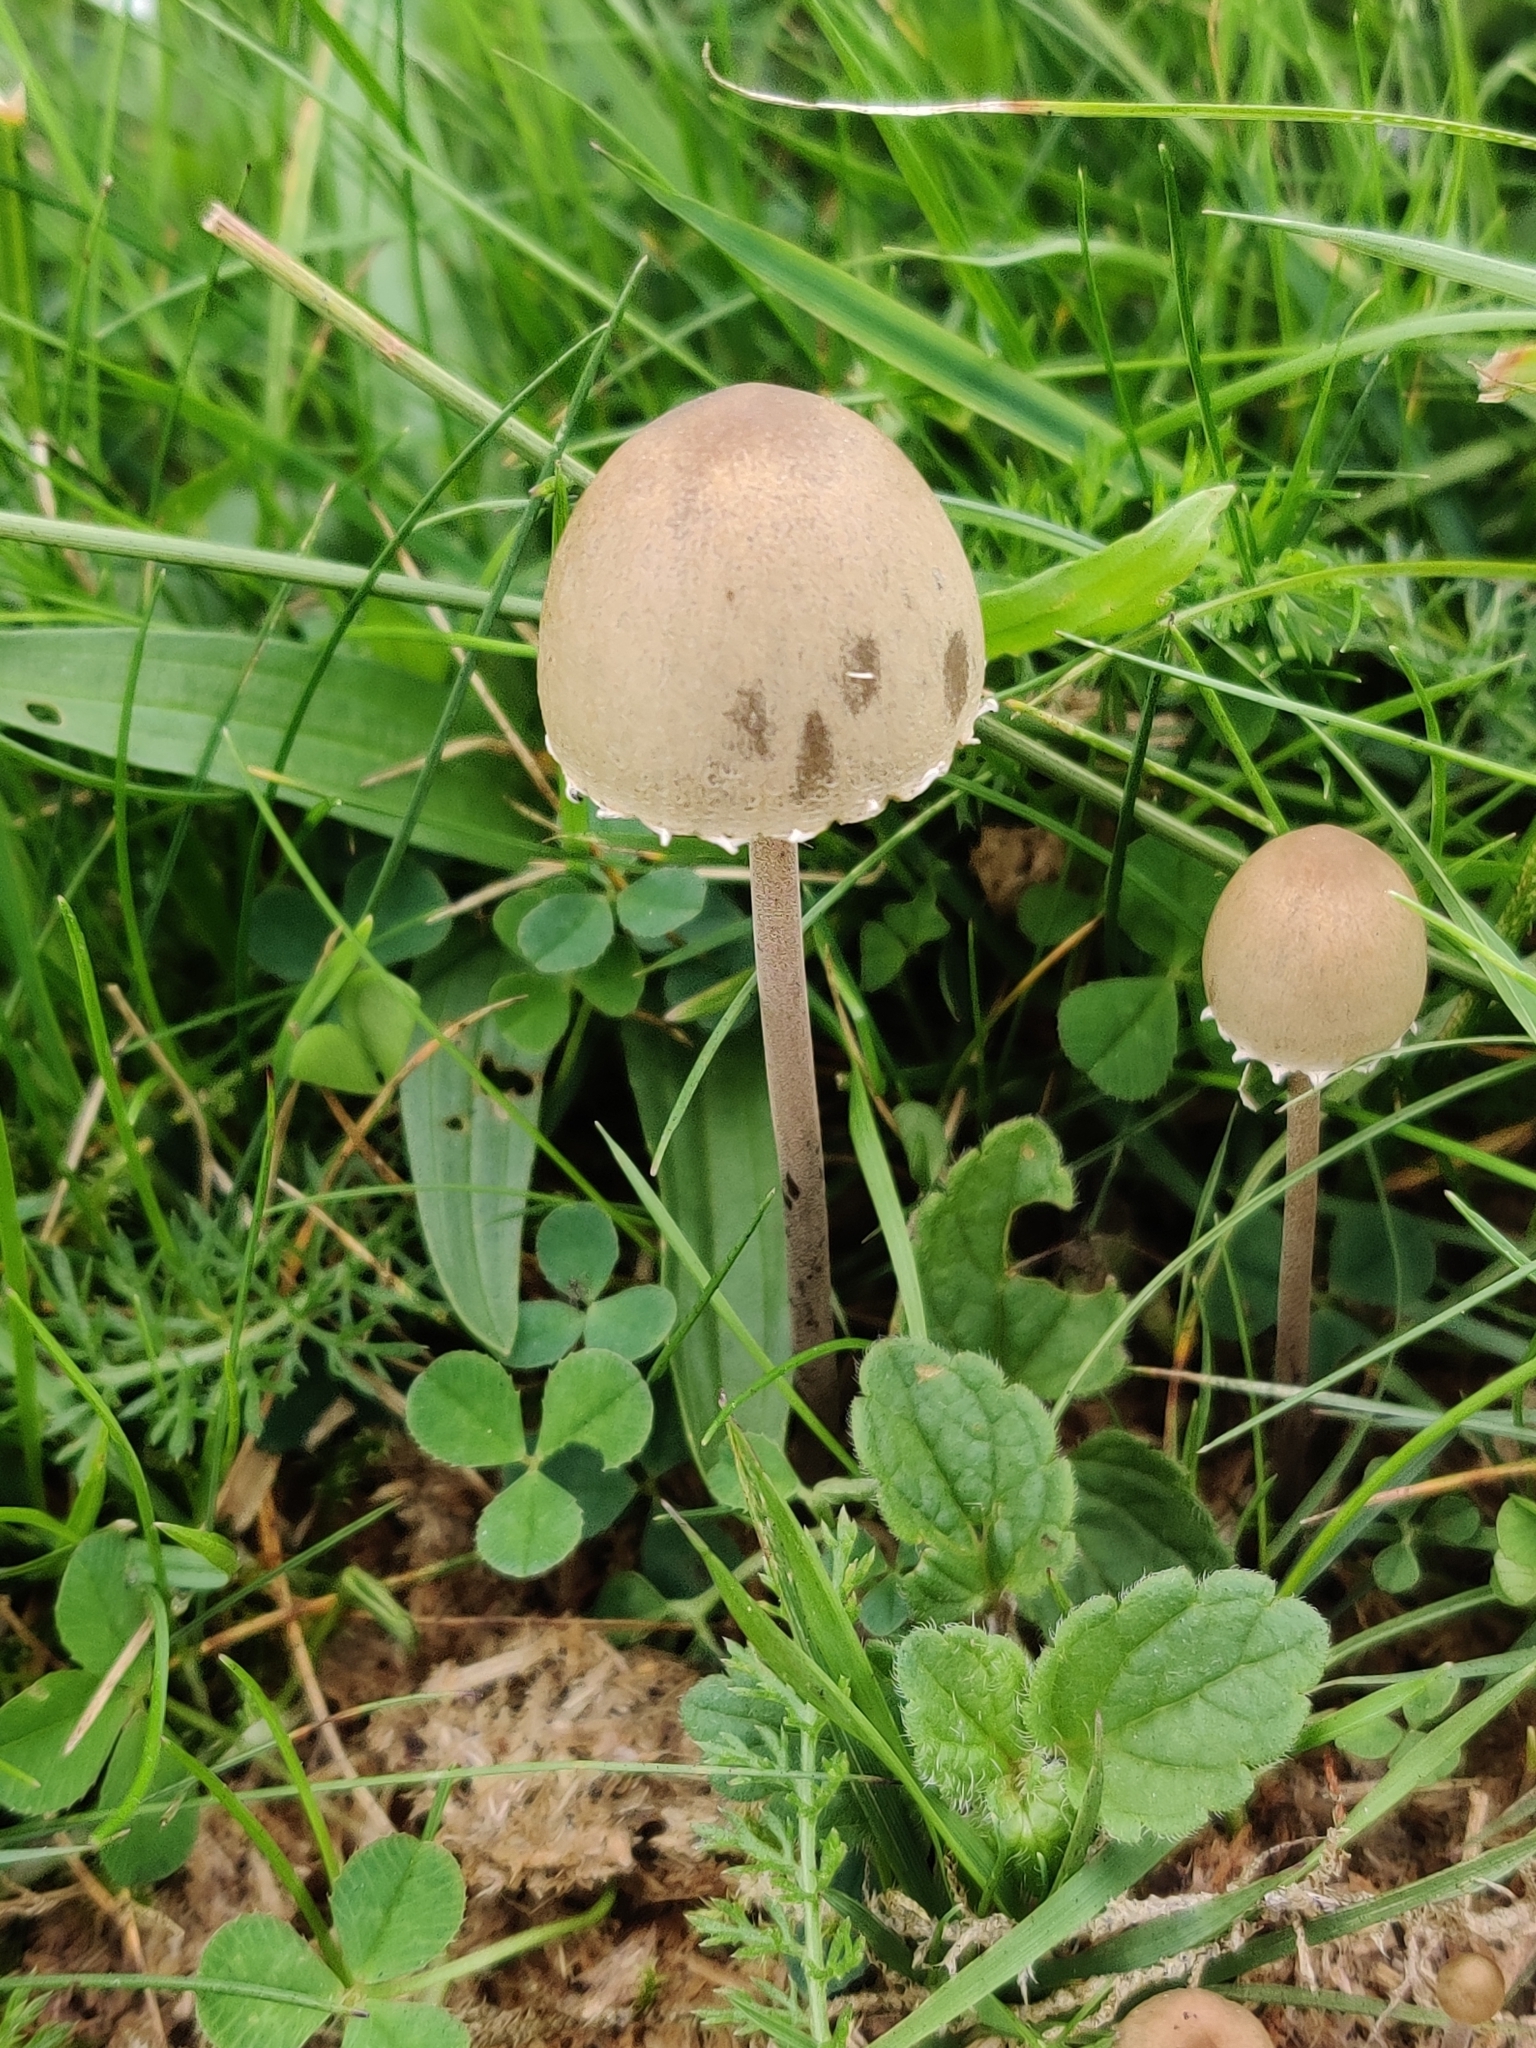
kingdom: Fungi
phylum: Basidiomycota
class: Agaricomycetes
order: Agaricales
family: Bolbitiaceae
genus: Panaeolus
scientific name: Panaeolus papilionaceus
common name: Petticoat mottlegill
